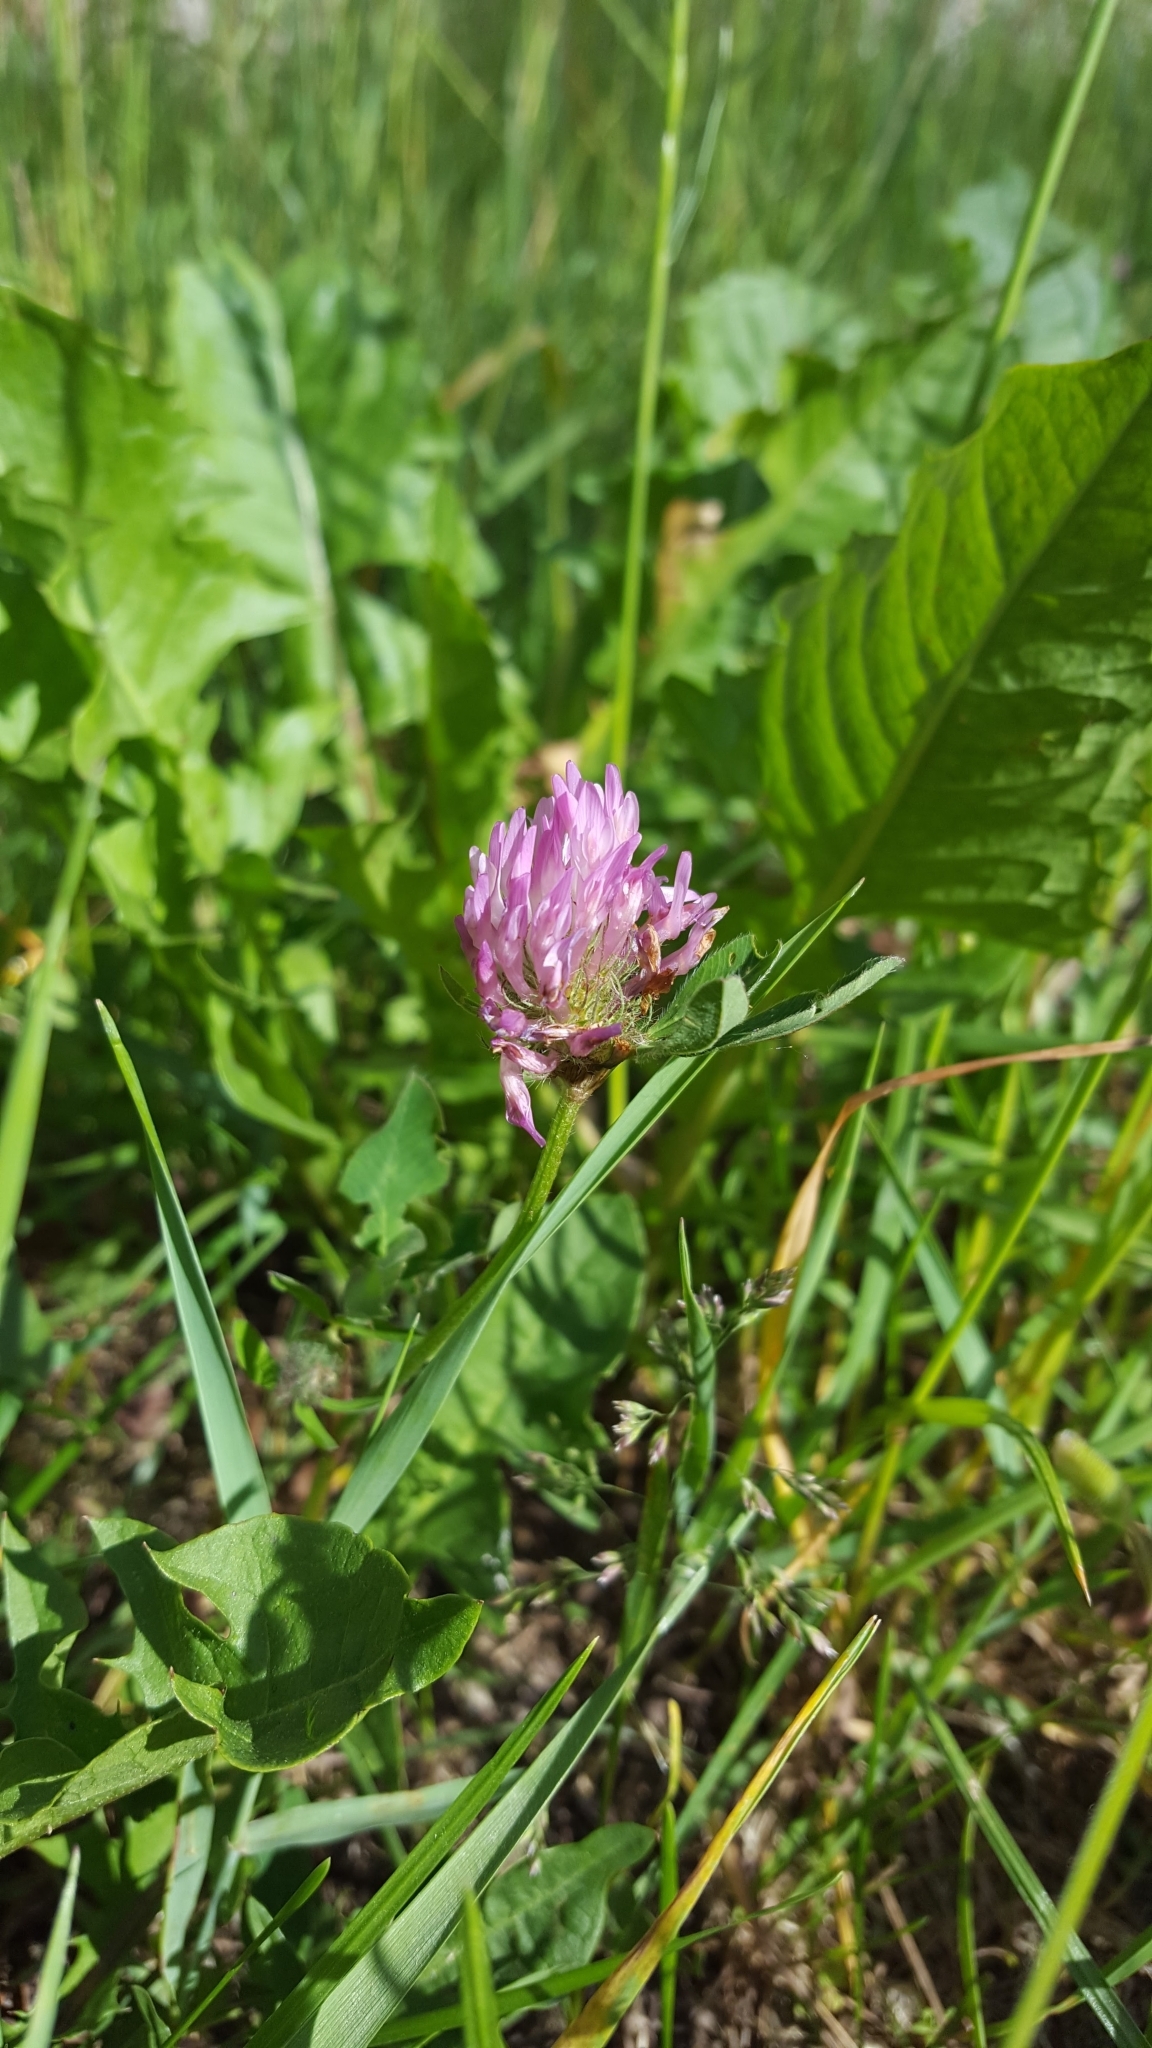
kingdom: Plantae
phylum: Tracheophyta
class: Magnoliopsida
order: Fabales
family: Fabaceae
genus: Trifolium
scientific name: Trifolium pratense
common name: Red clover
